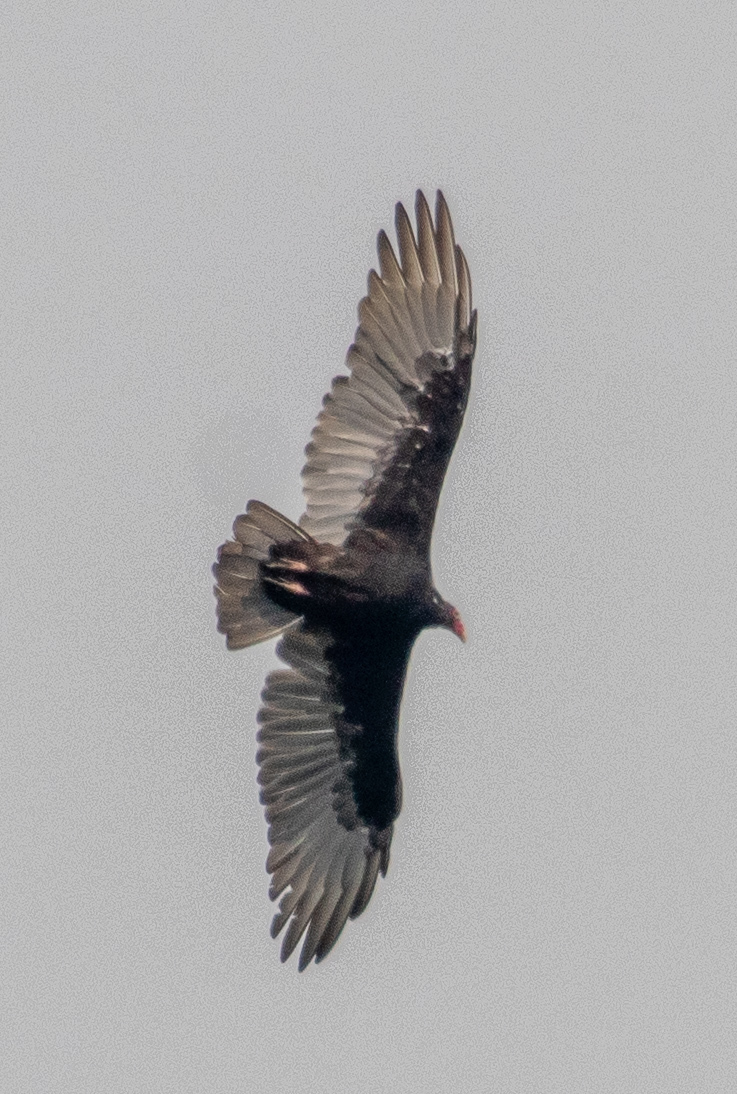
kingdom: Animalia
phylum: Chordata
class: Aves
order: Accipitriformes
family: Cathartidae
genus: Cathartes
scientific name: Cathartes aura
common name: Turkey vulture
